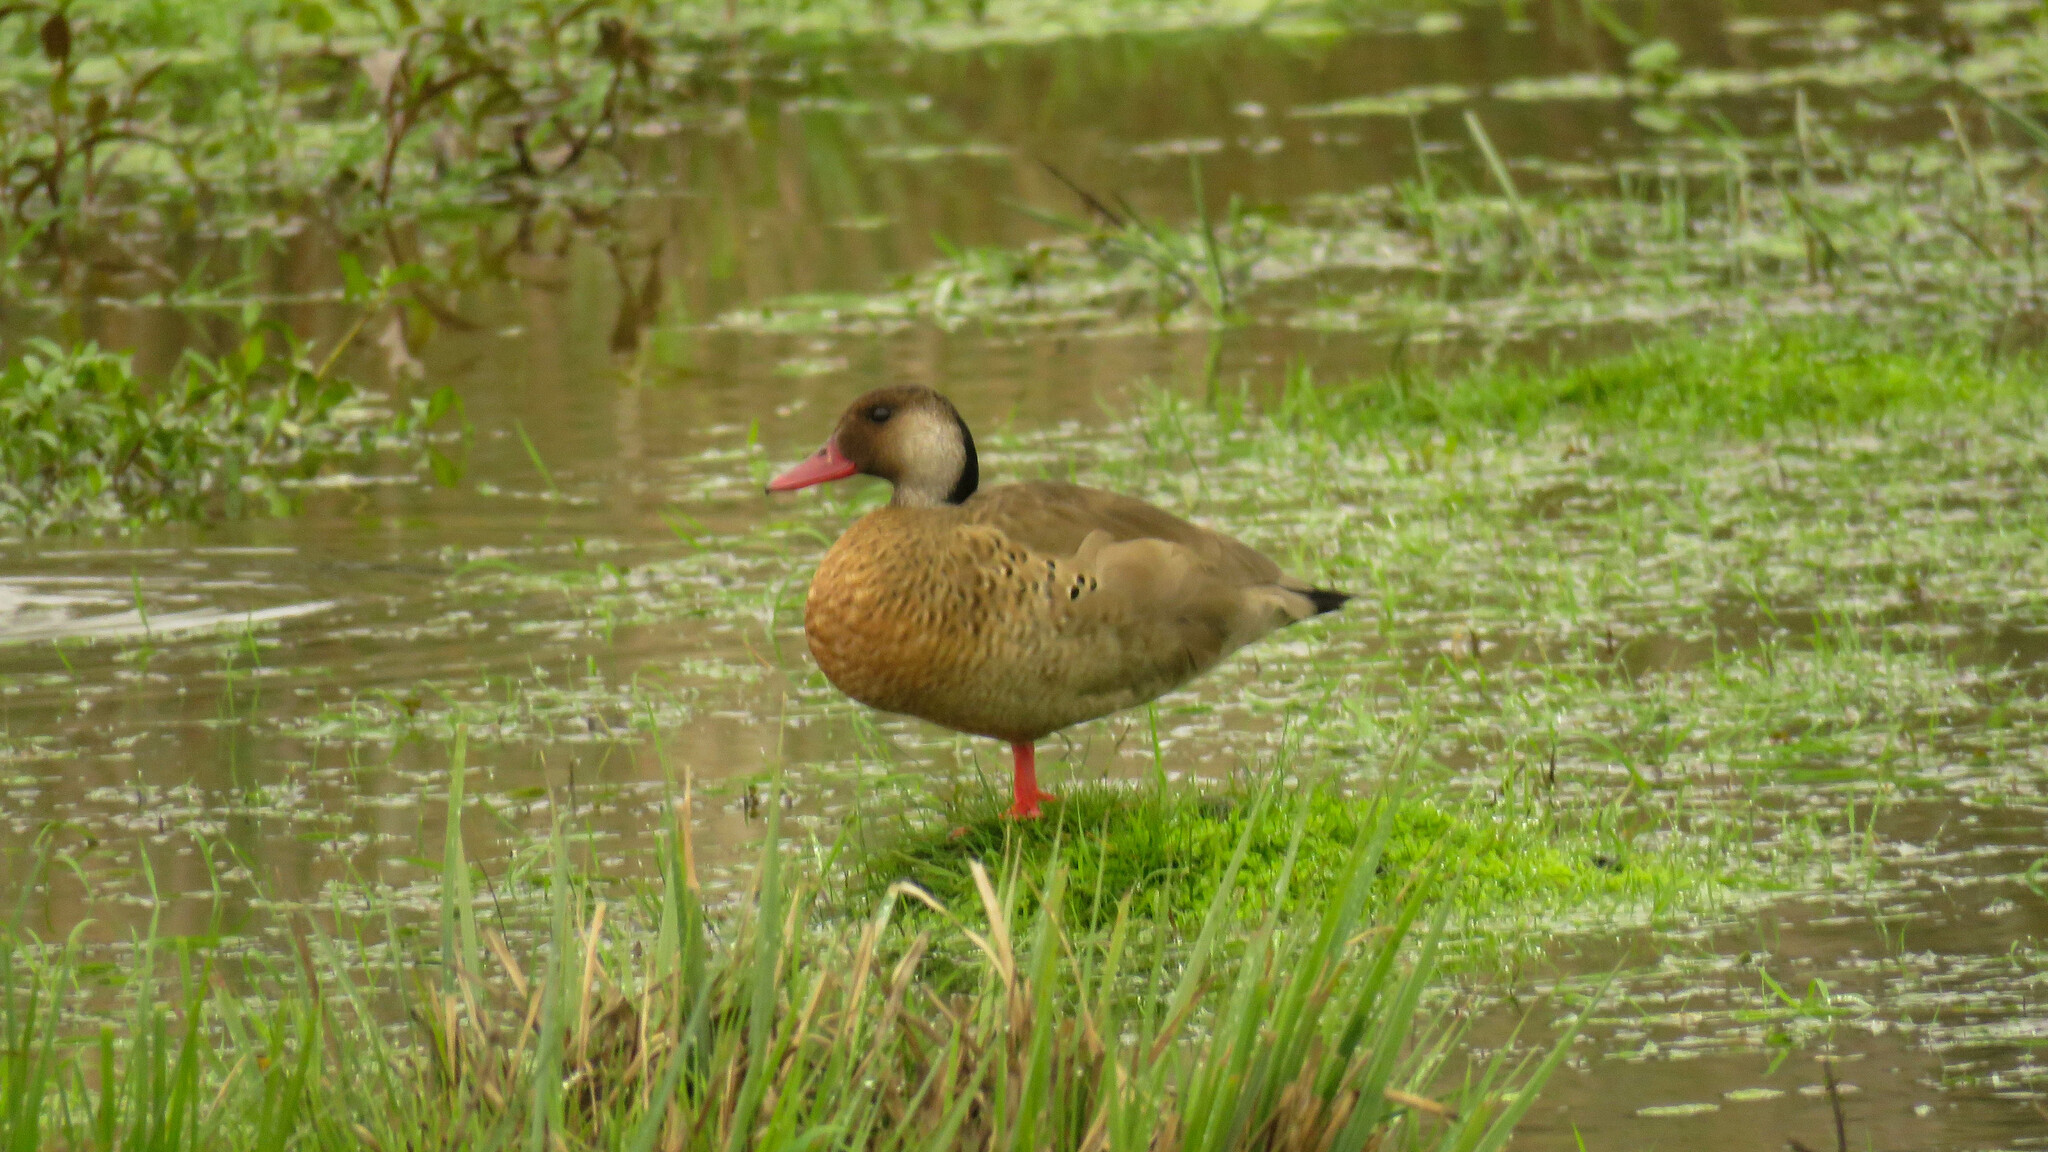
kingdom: Animalia
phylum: Chordata
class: Aves
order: Anseriformes
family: Anatidae
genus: Amazonetta
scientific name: Amazonetta brasiliensis
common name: Brazilian teal
